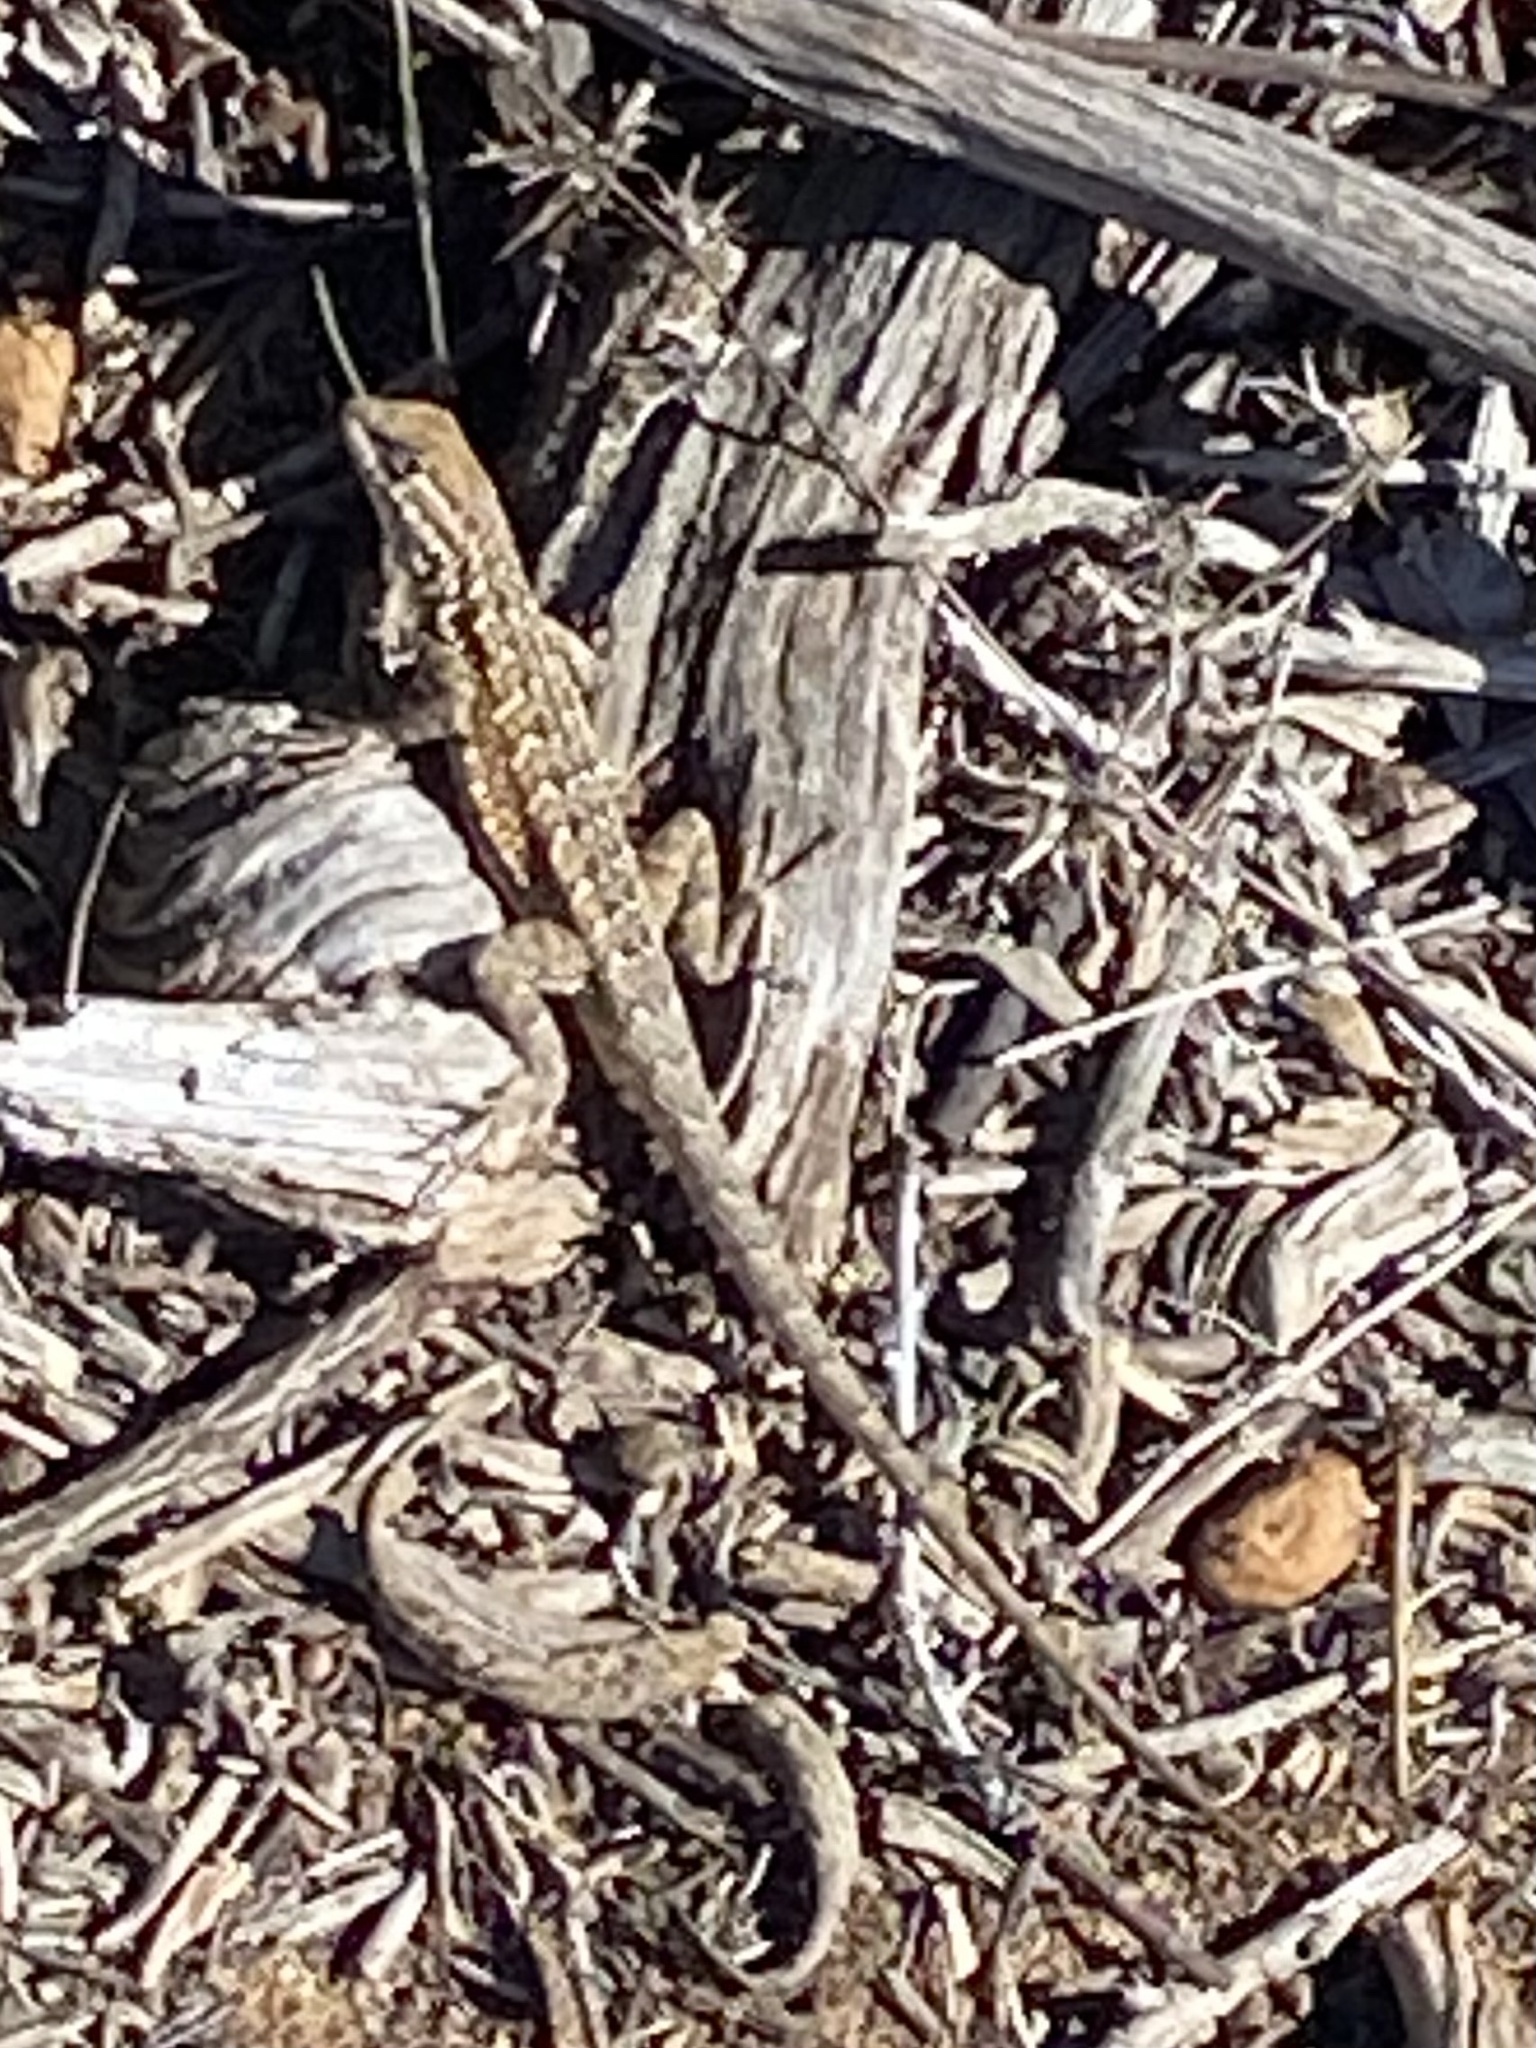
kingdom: Animalia
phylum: Chordata
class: Squamata
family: Phrynosomatidae
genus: Uta
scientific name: Uta stansburiana
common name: Side-blotched lizard
